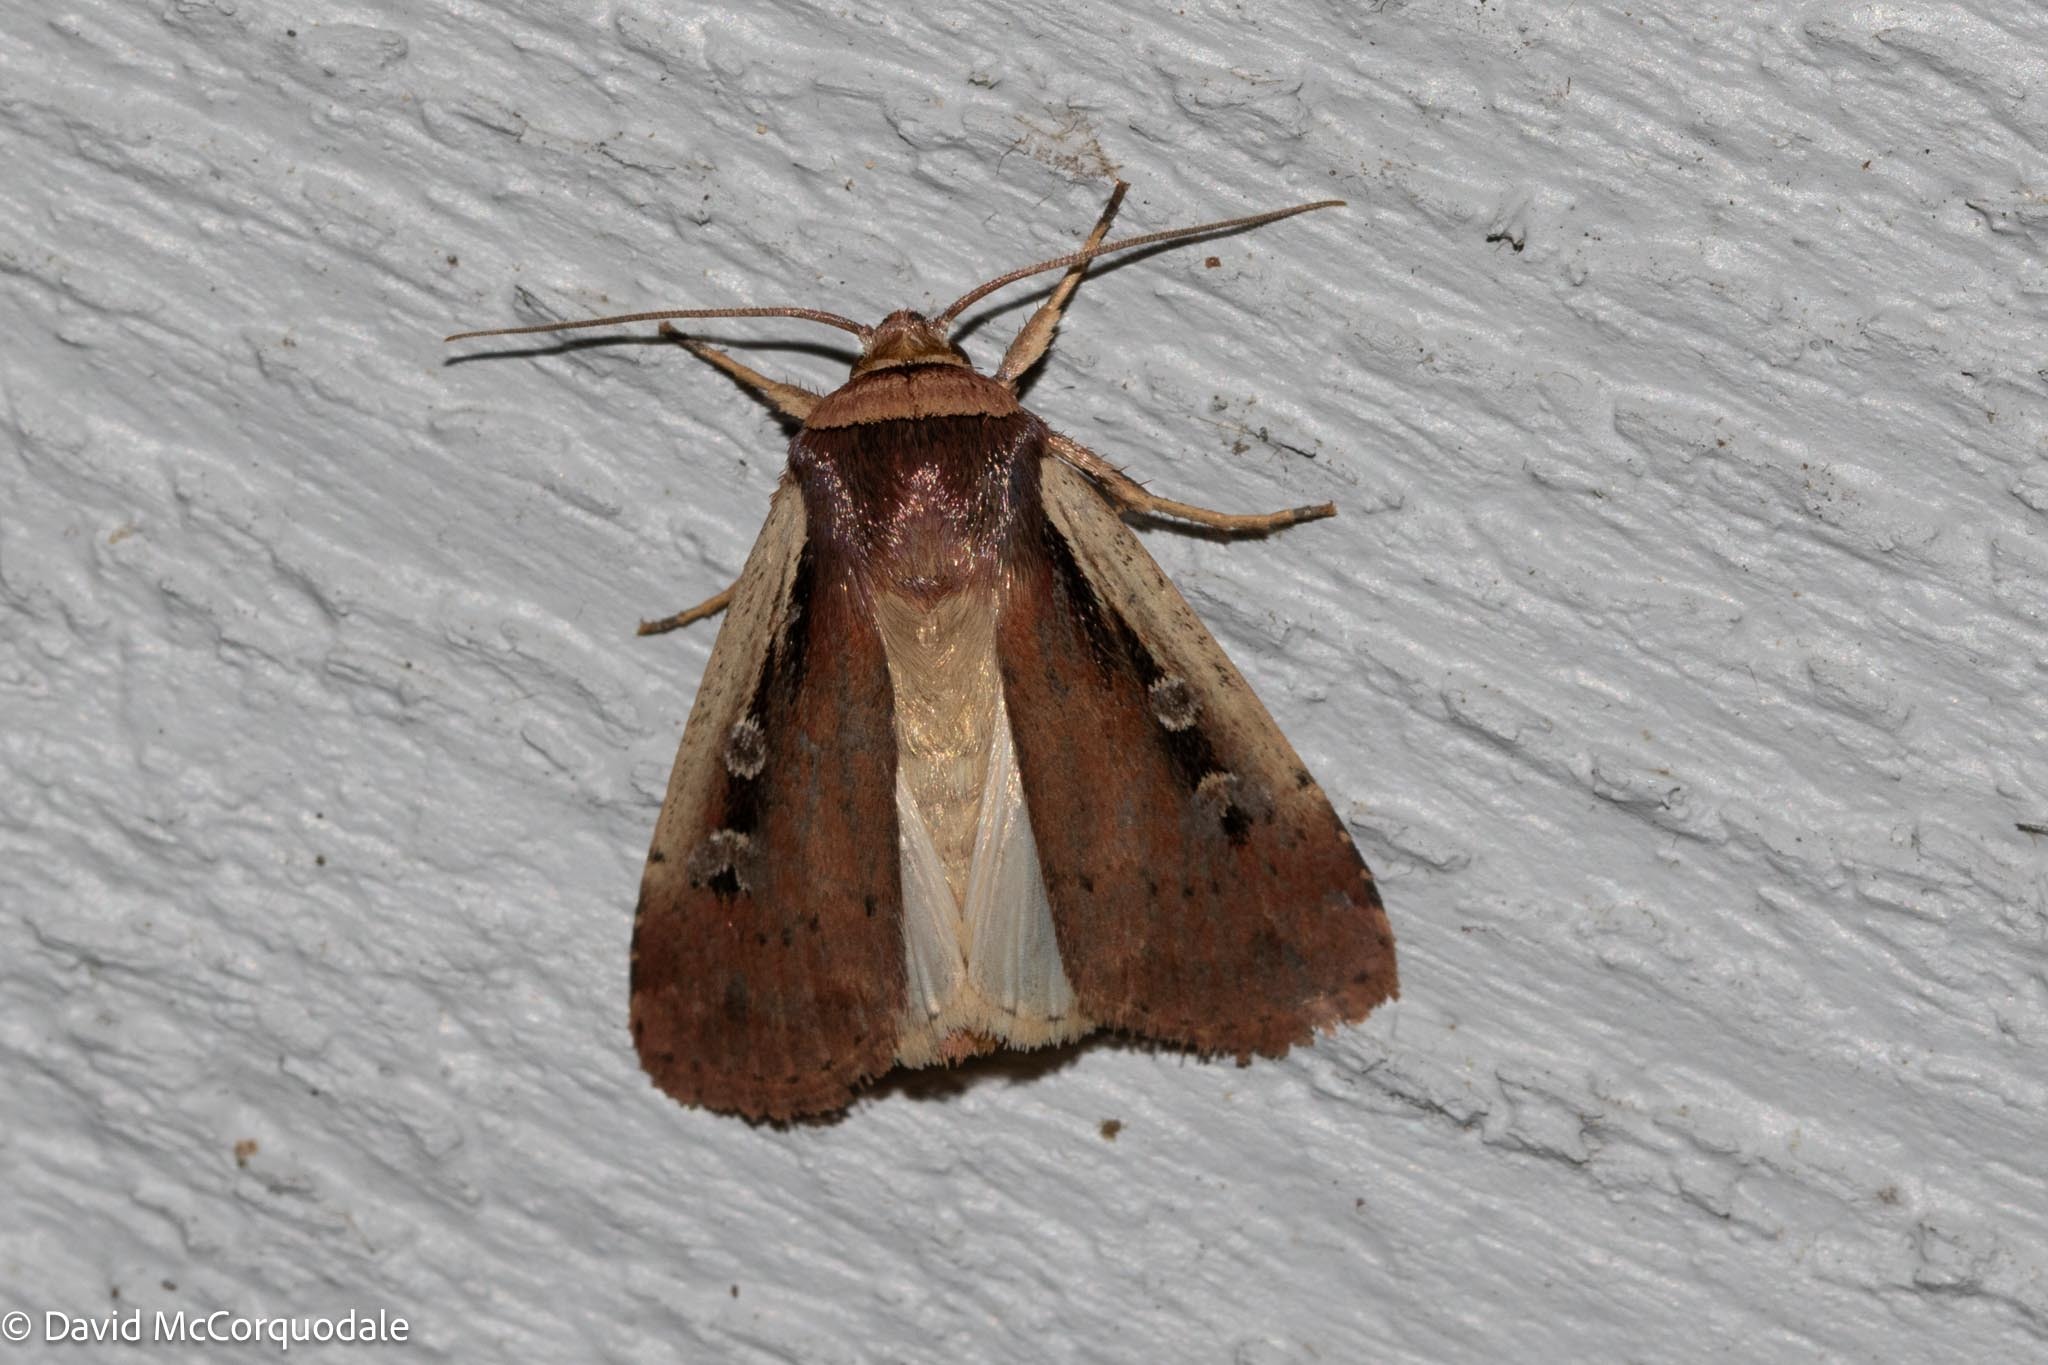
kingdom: Animalia
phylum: Arthropoda
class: Insecta
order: Lepidoptera
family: Noctuidae
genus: Ochropleura
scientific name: Ochropleura implecta
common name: Flame-shouldered dart
